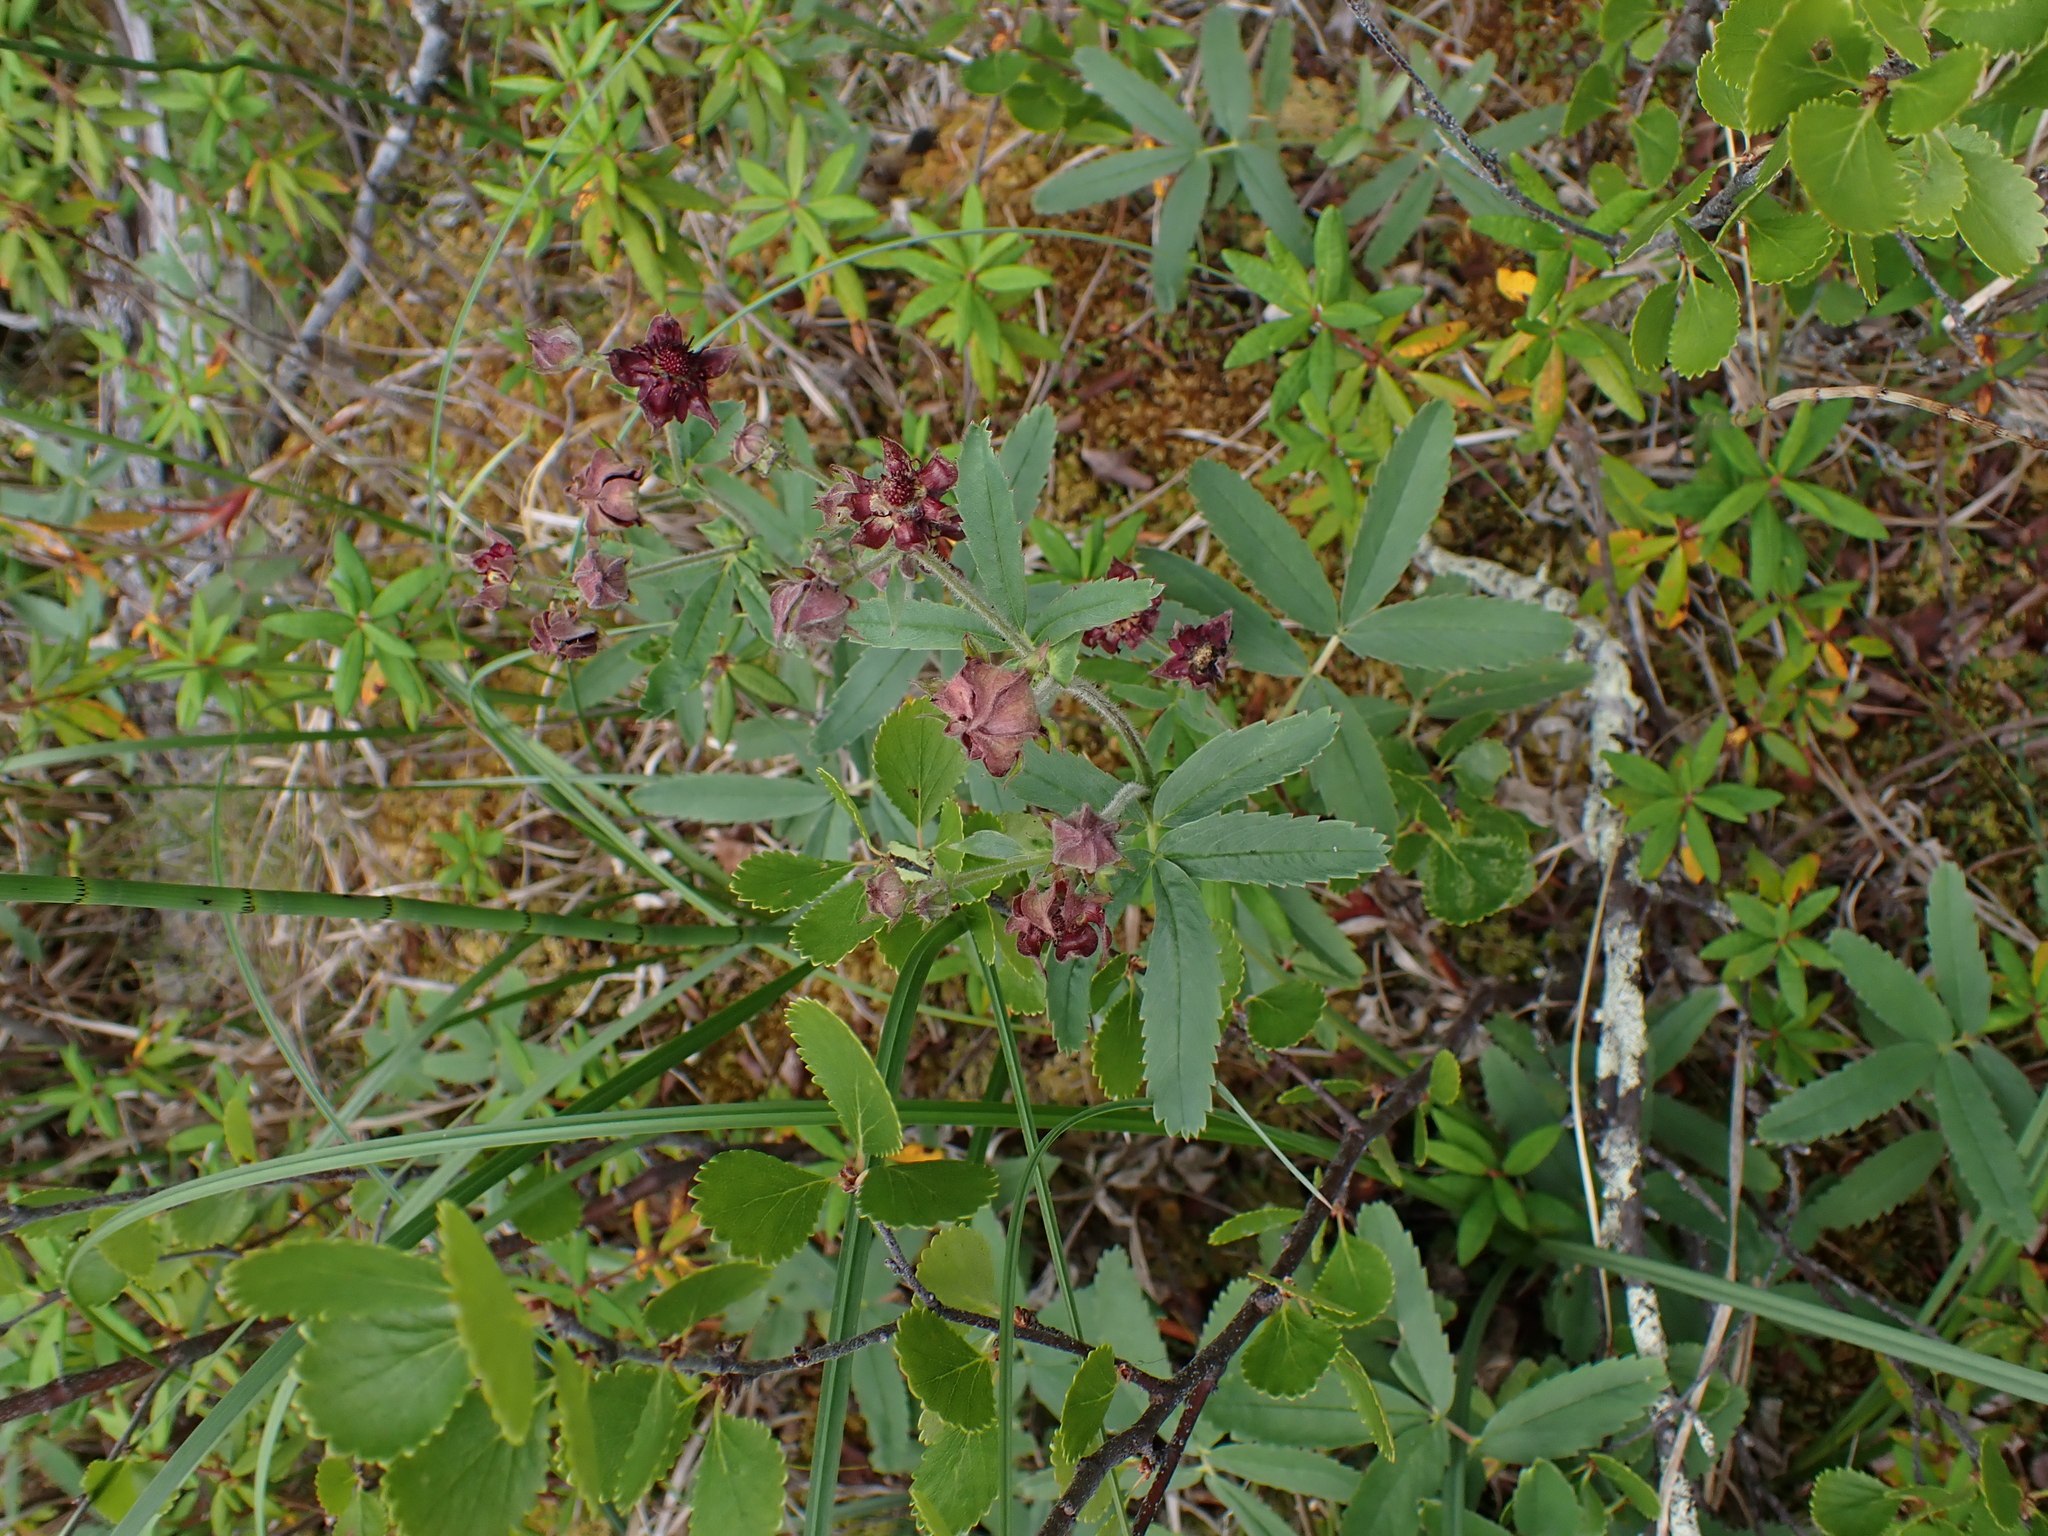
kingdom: Plantae
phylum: Tracheophyta
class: Magnoliopsida
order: Rosales
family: Rosaceae
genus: Comarum
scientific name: Comarum palustre
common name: Marsh cinquefoil
